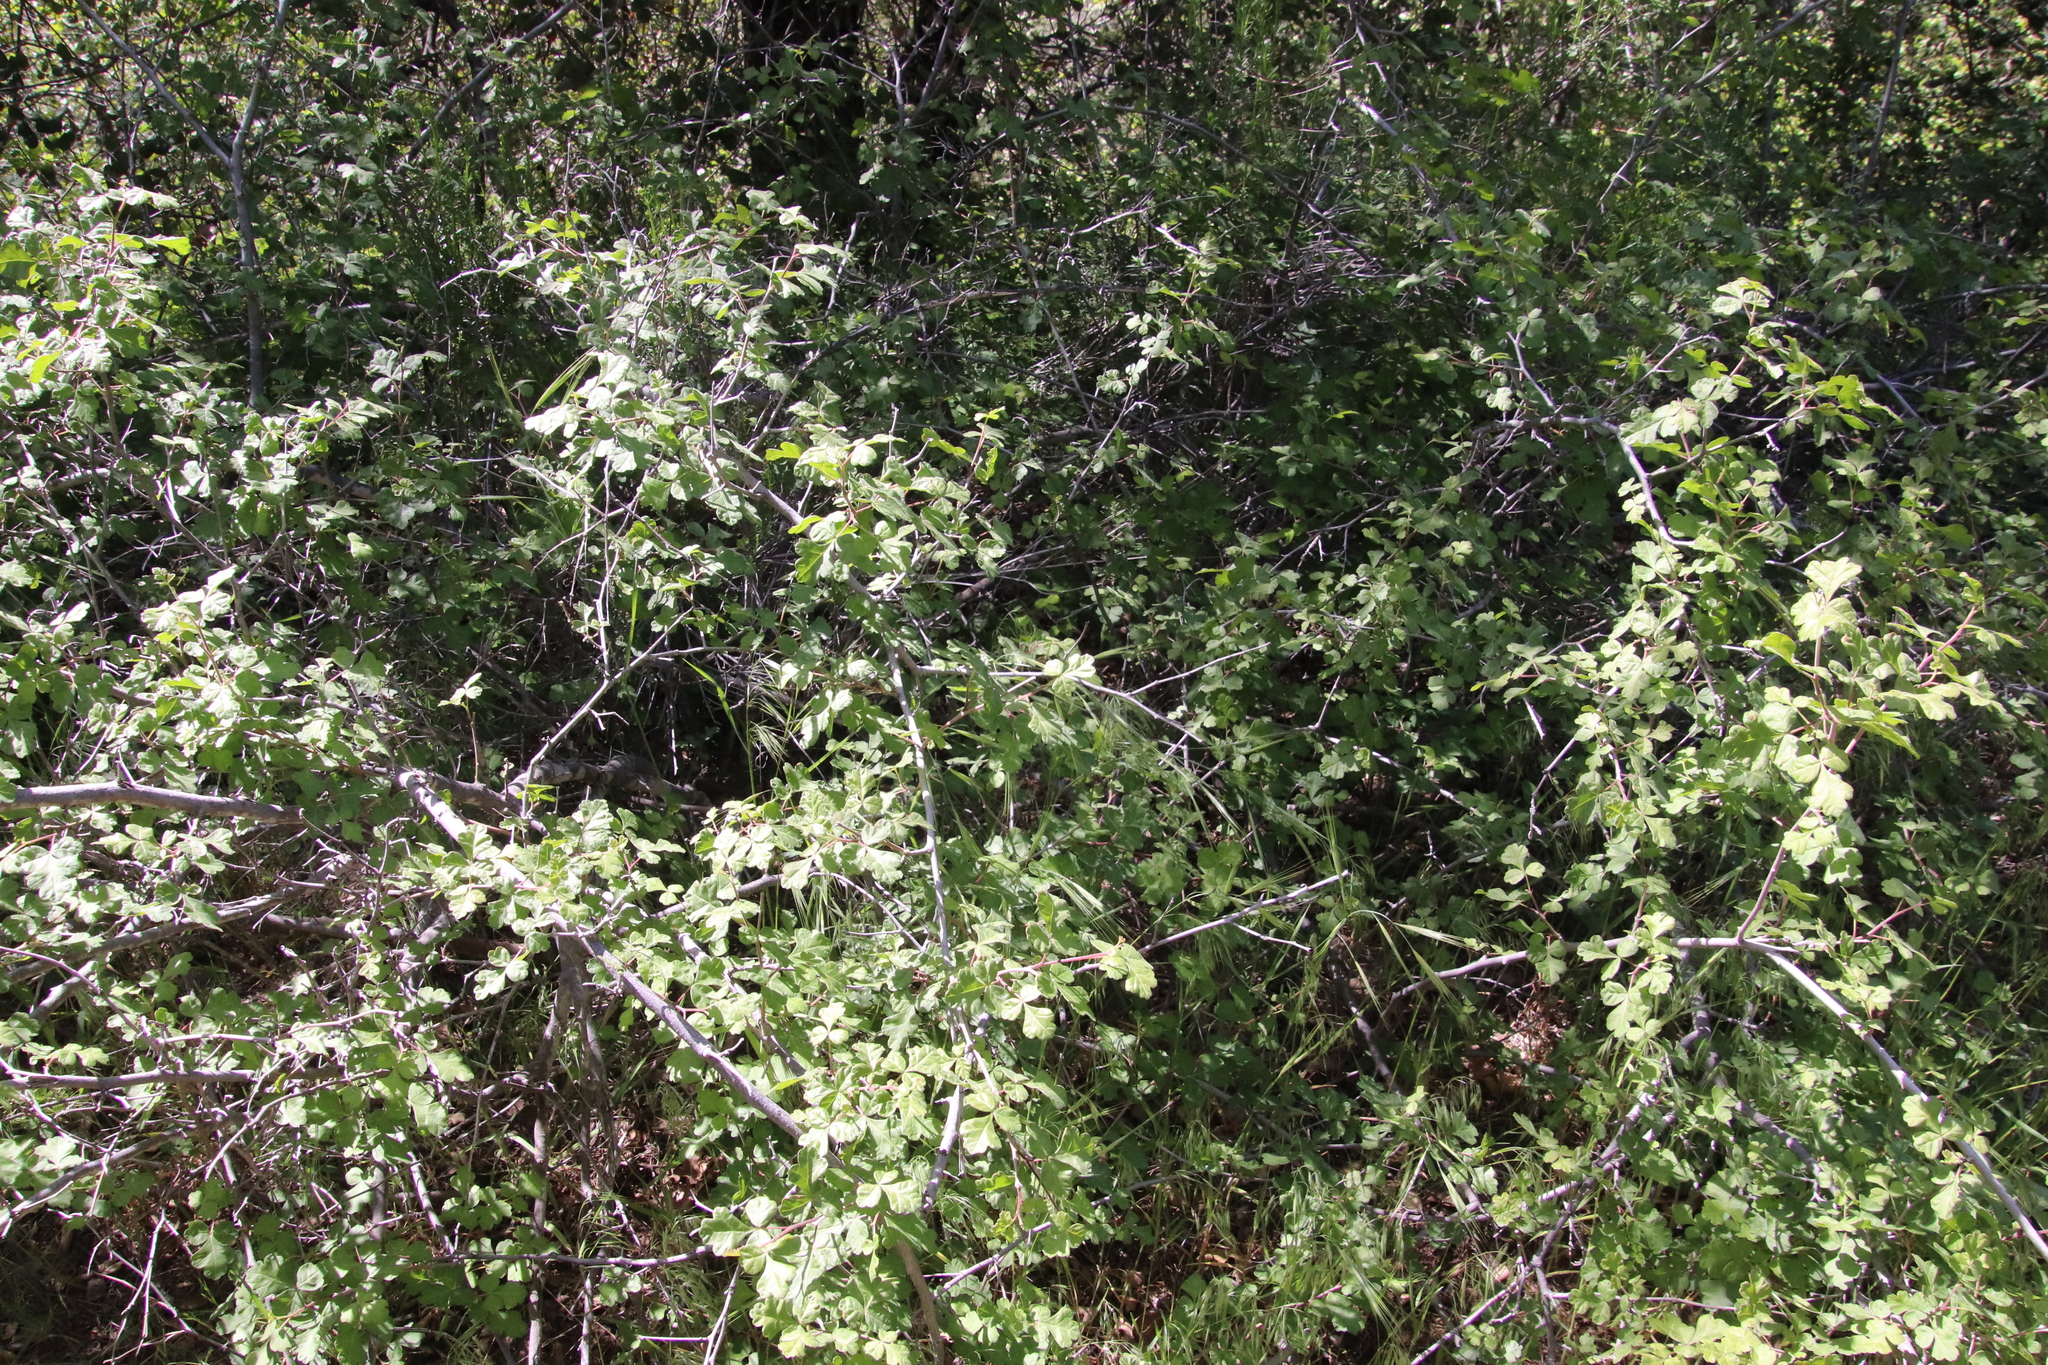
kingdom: Plantae
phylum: Tracheophyta
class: Magnoliopsida
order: Sapindales
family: Anacardiaceae
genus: Rhus
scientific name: Rhus aromatica
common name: Aromatic sumac
